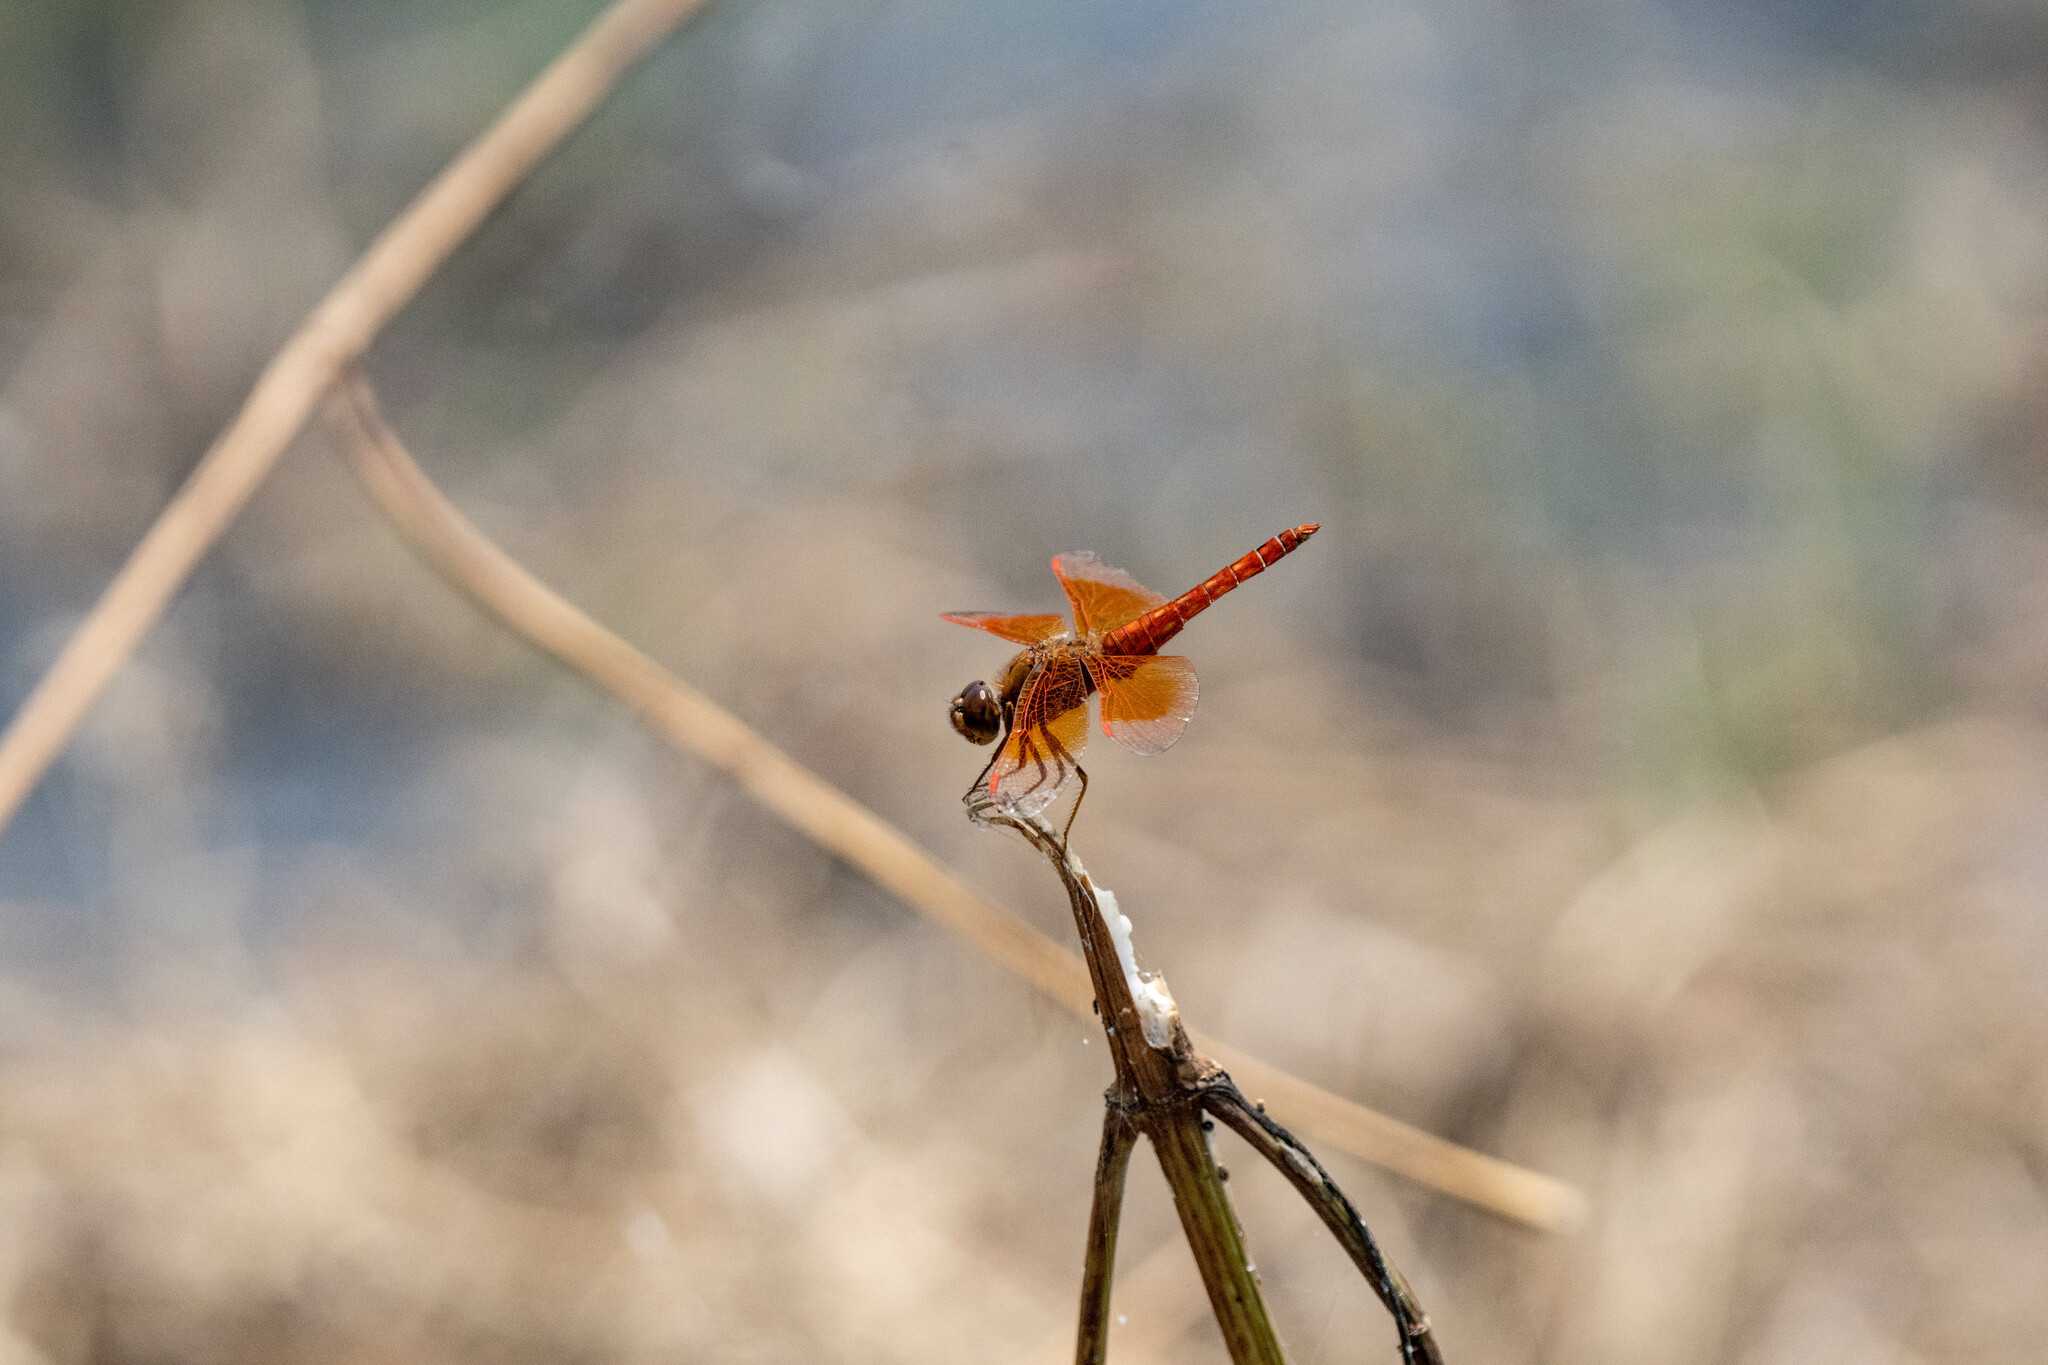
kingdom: Animalia
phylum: Arthropoda
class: Insecta
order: Odonata
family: Libellulidae
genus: Brachythemis
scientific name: Brachythemis contaminata
